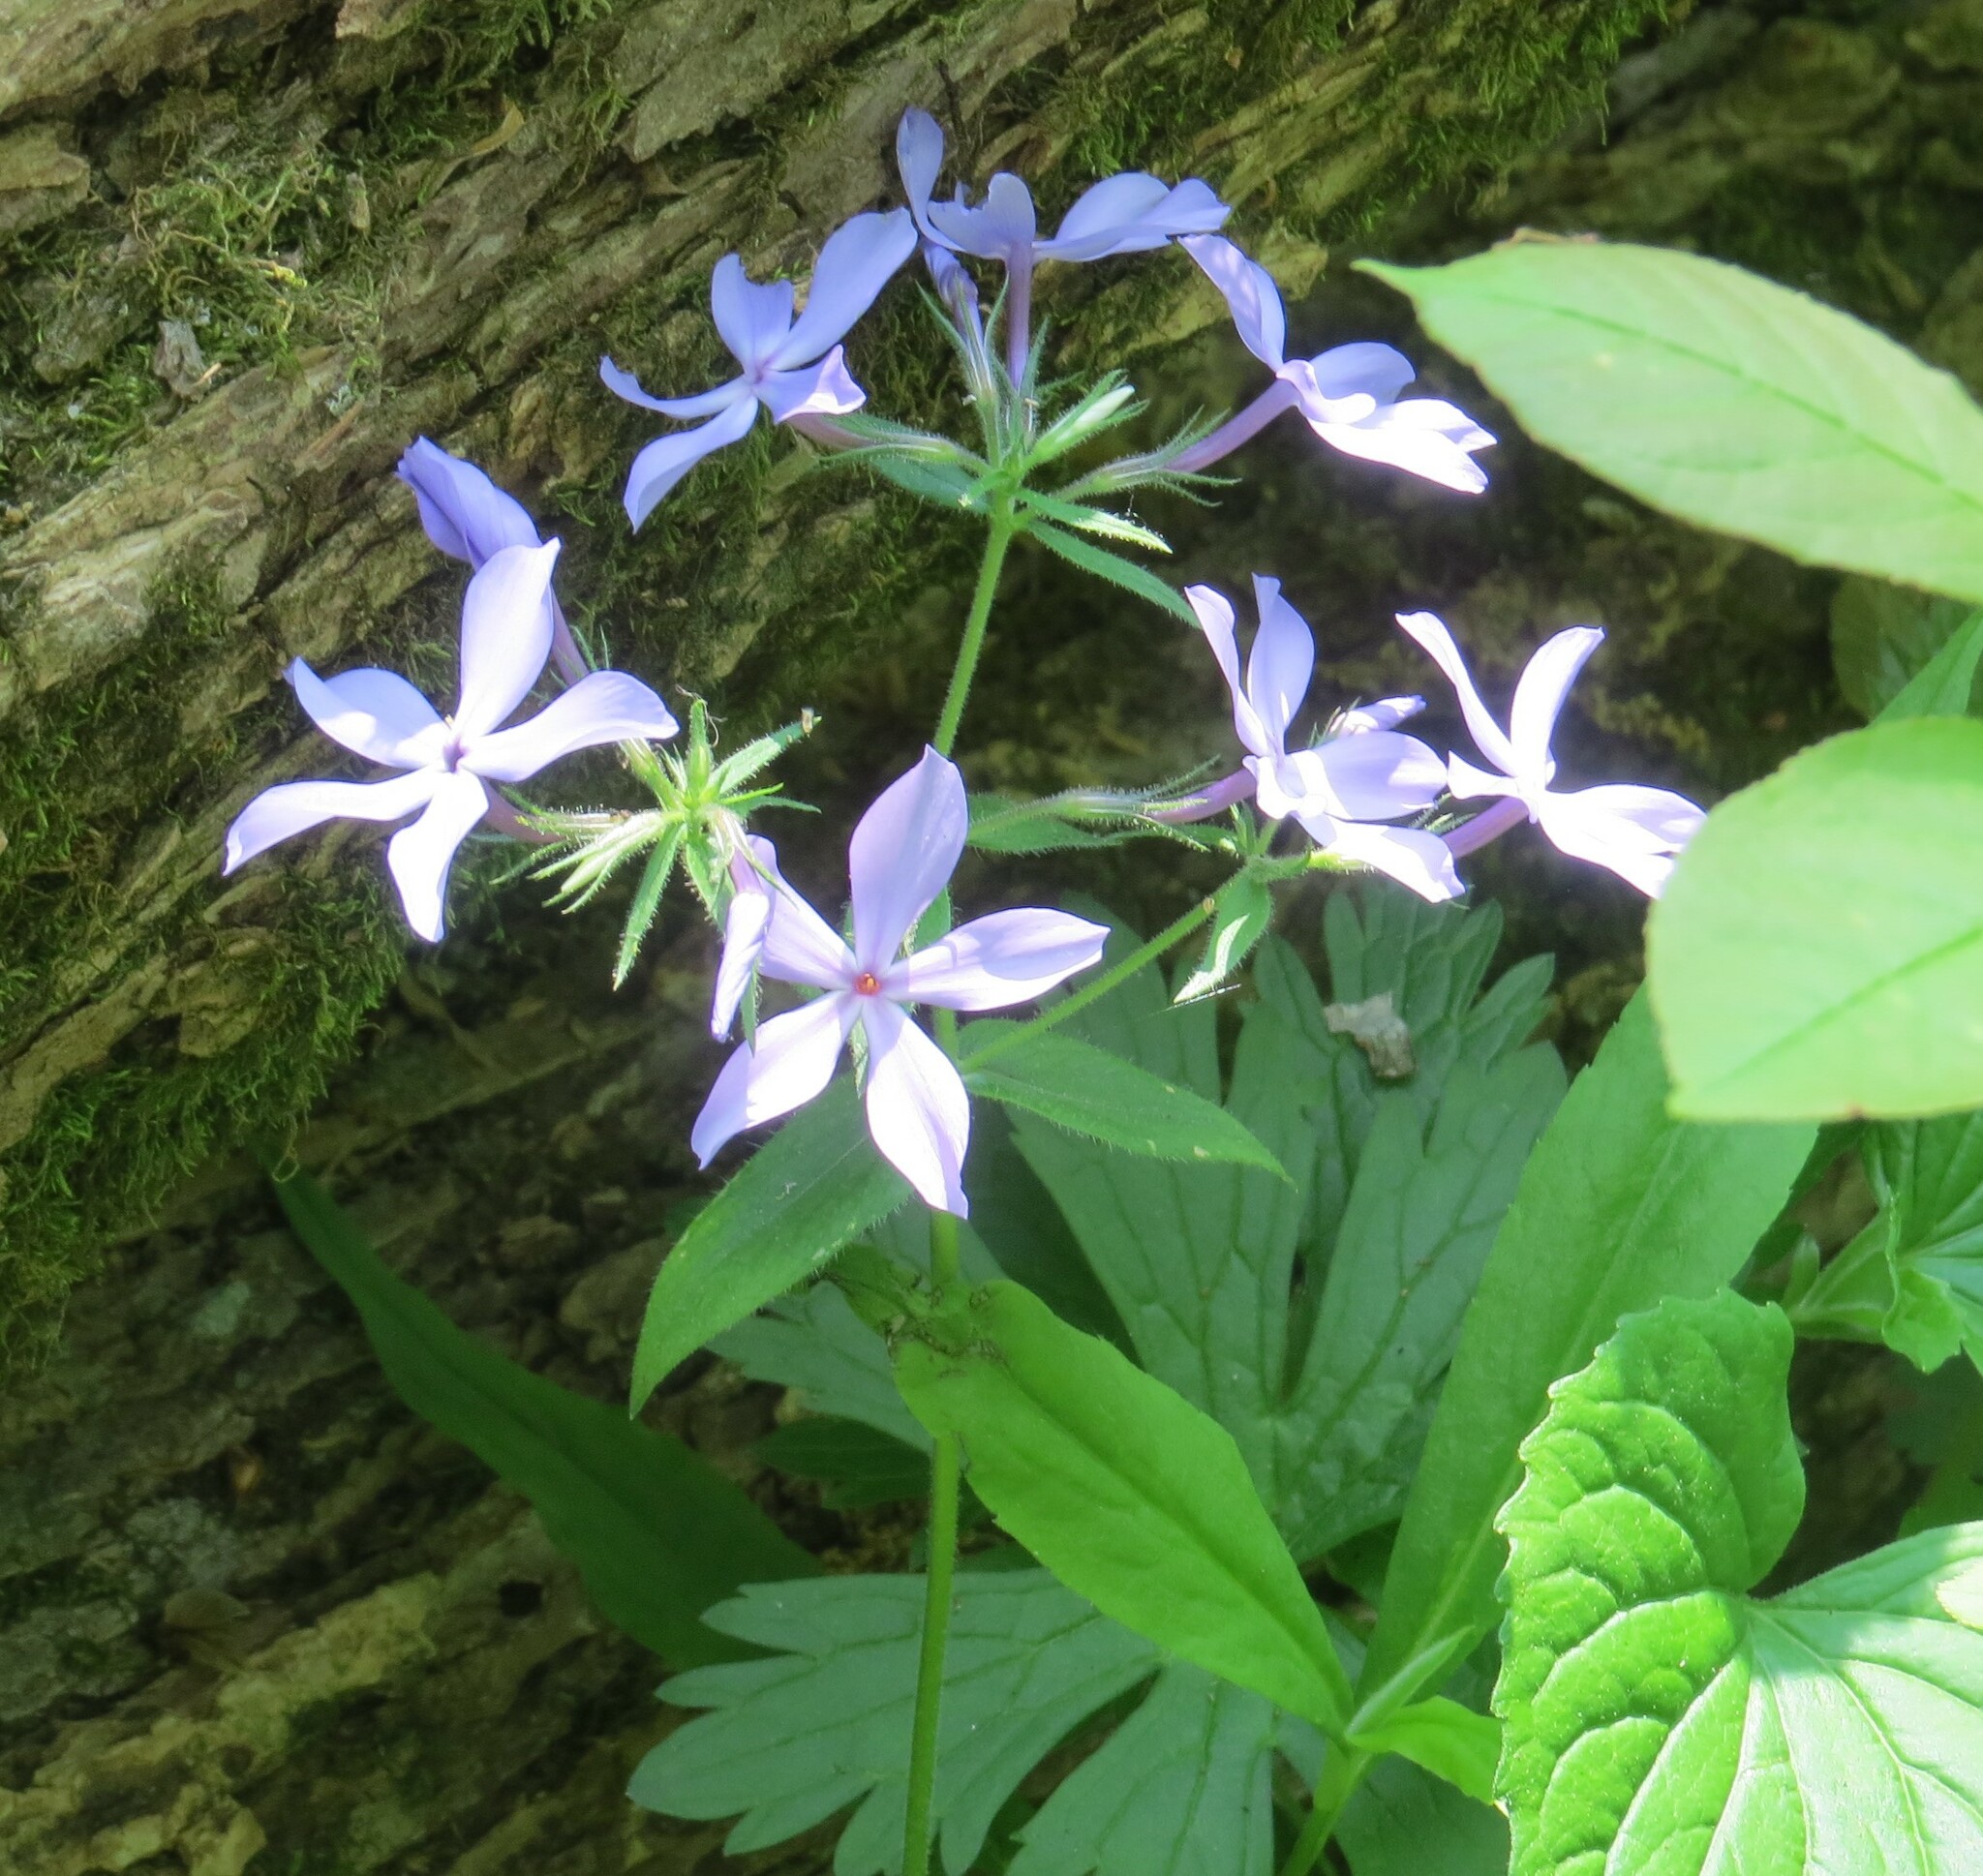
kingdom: Plantae
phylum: Tracheophyta
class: Magnoliopsida
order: Ericales
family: Polemoniaceae
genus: Phlox
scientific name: Phlox divaricata
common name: Blue phlox
